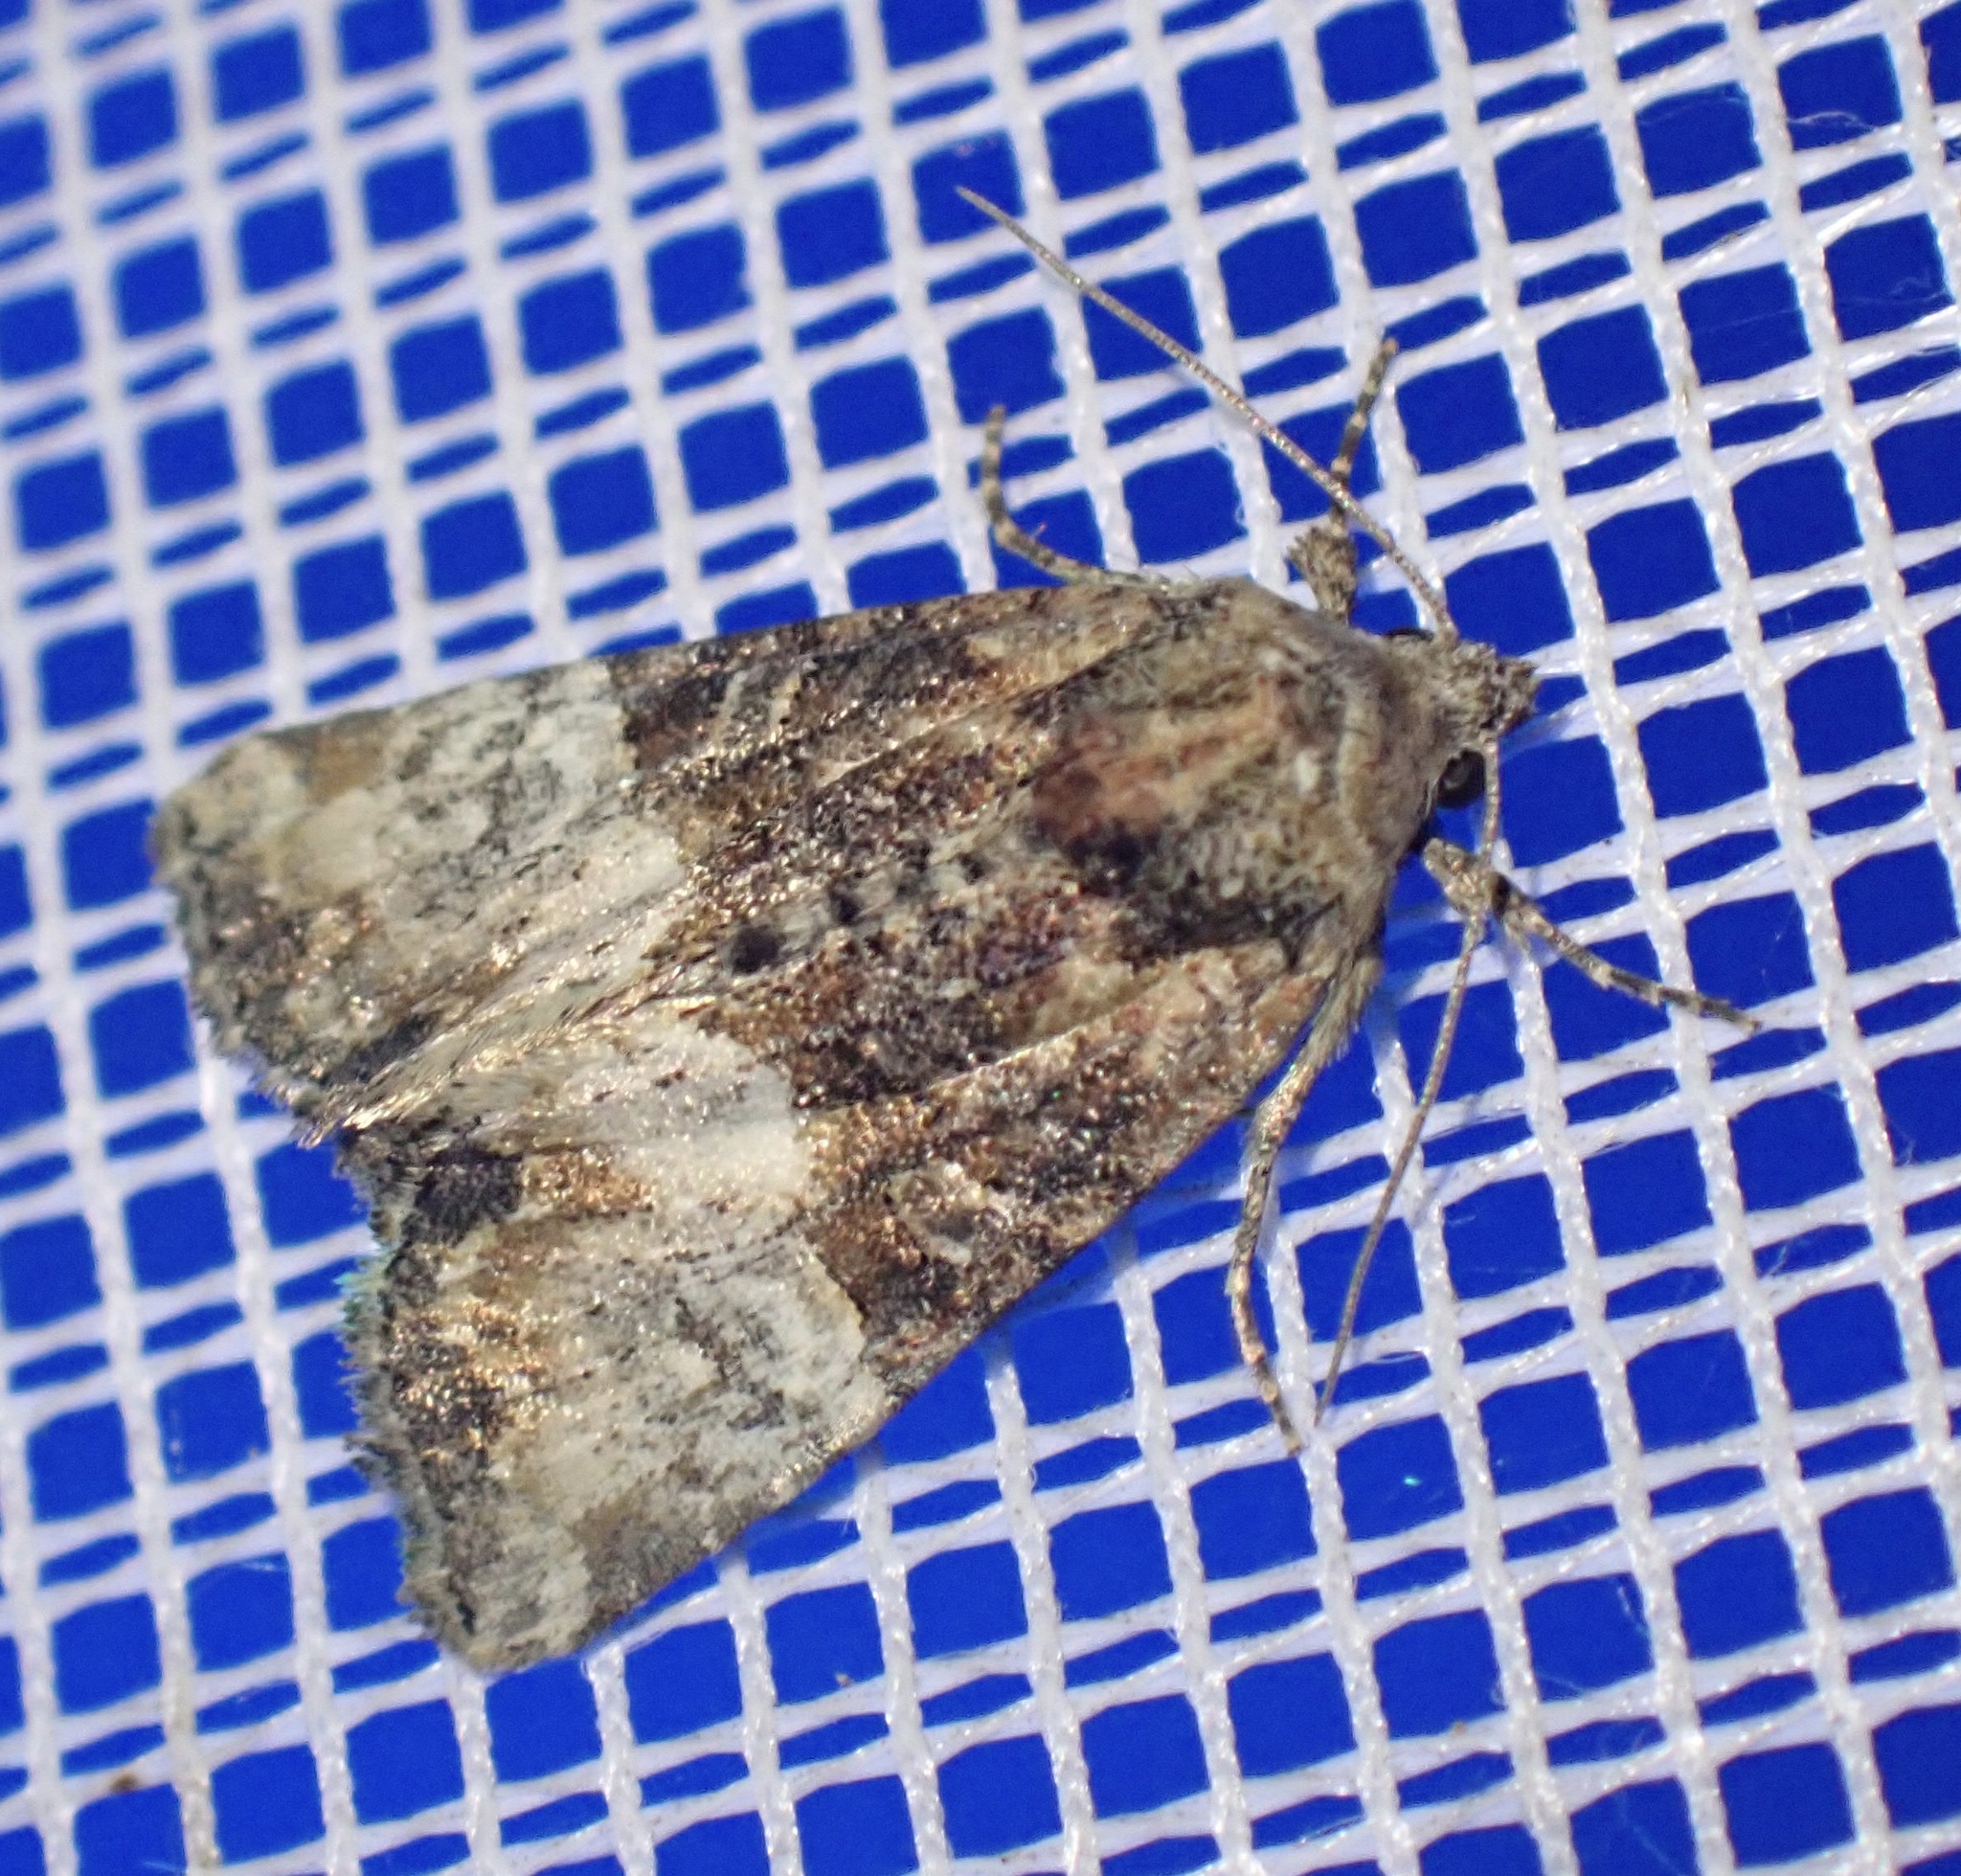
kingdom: Animalia
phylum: Arthropoda
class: Insecta
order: Lepidoptera
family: Noctuidae
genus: Mesoligia
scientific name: Mesoligia furuncula
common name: Cloaked minor
